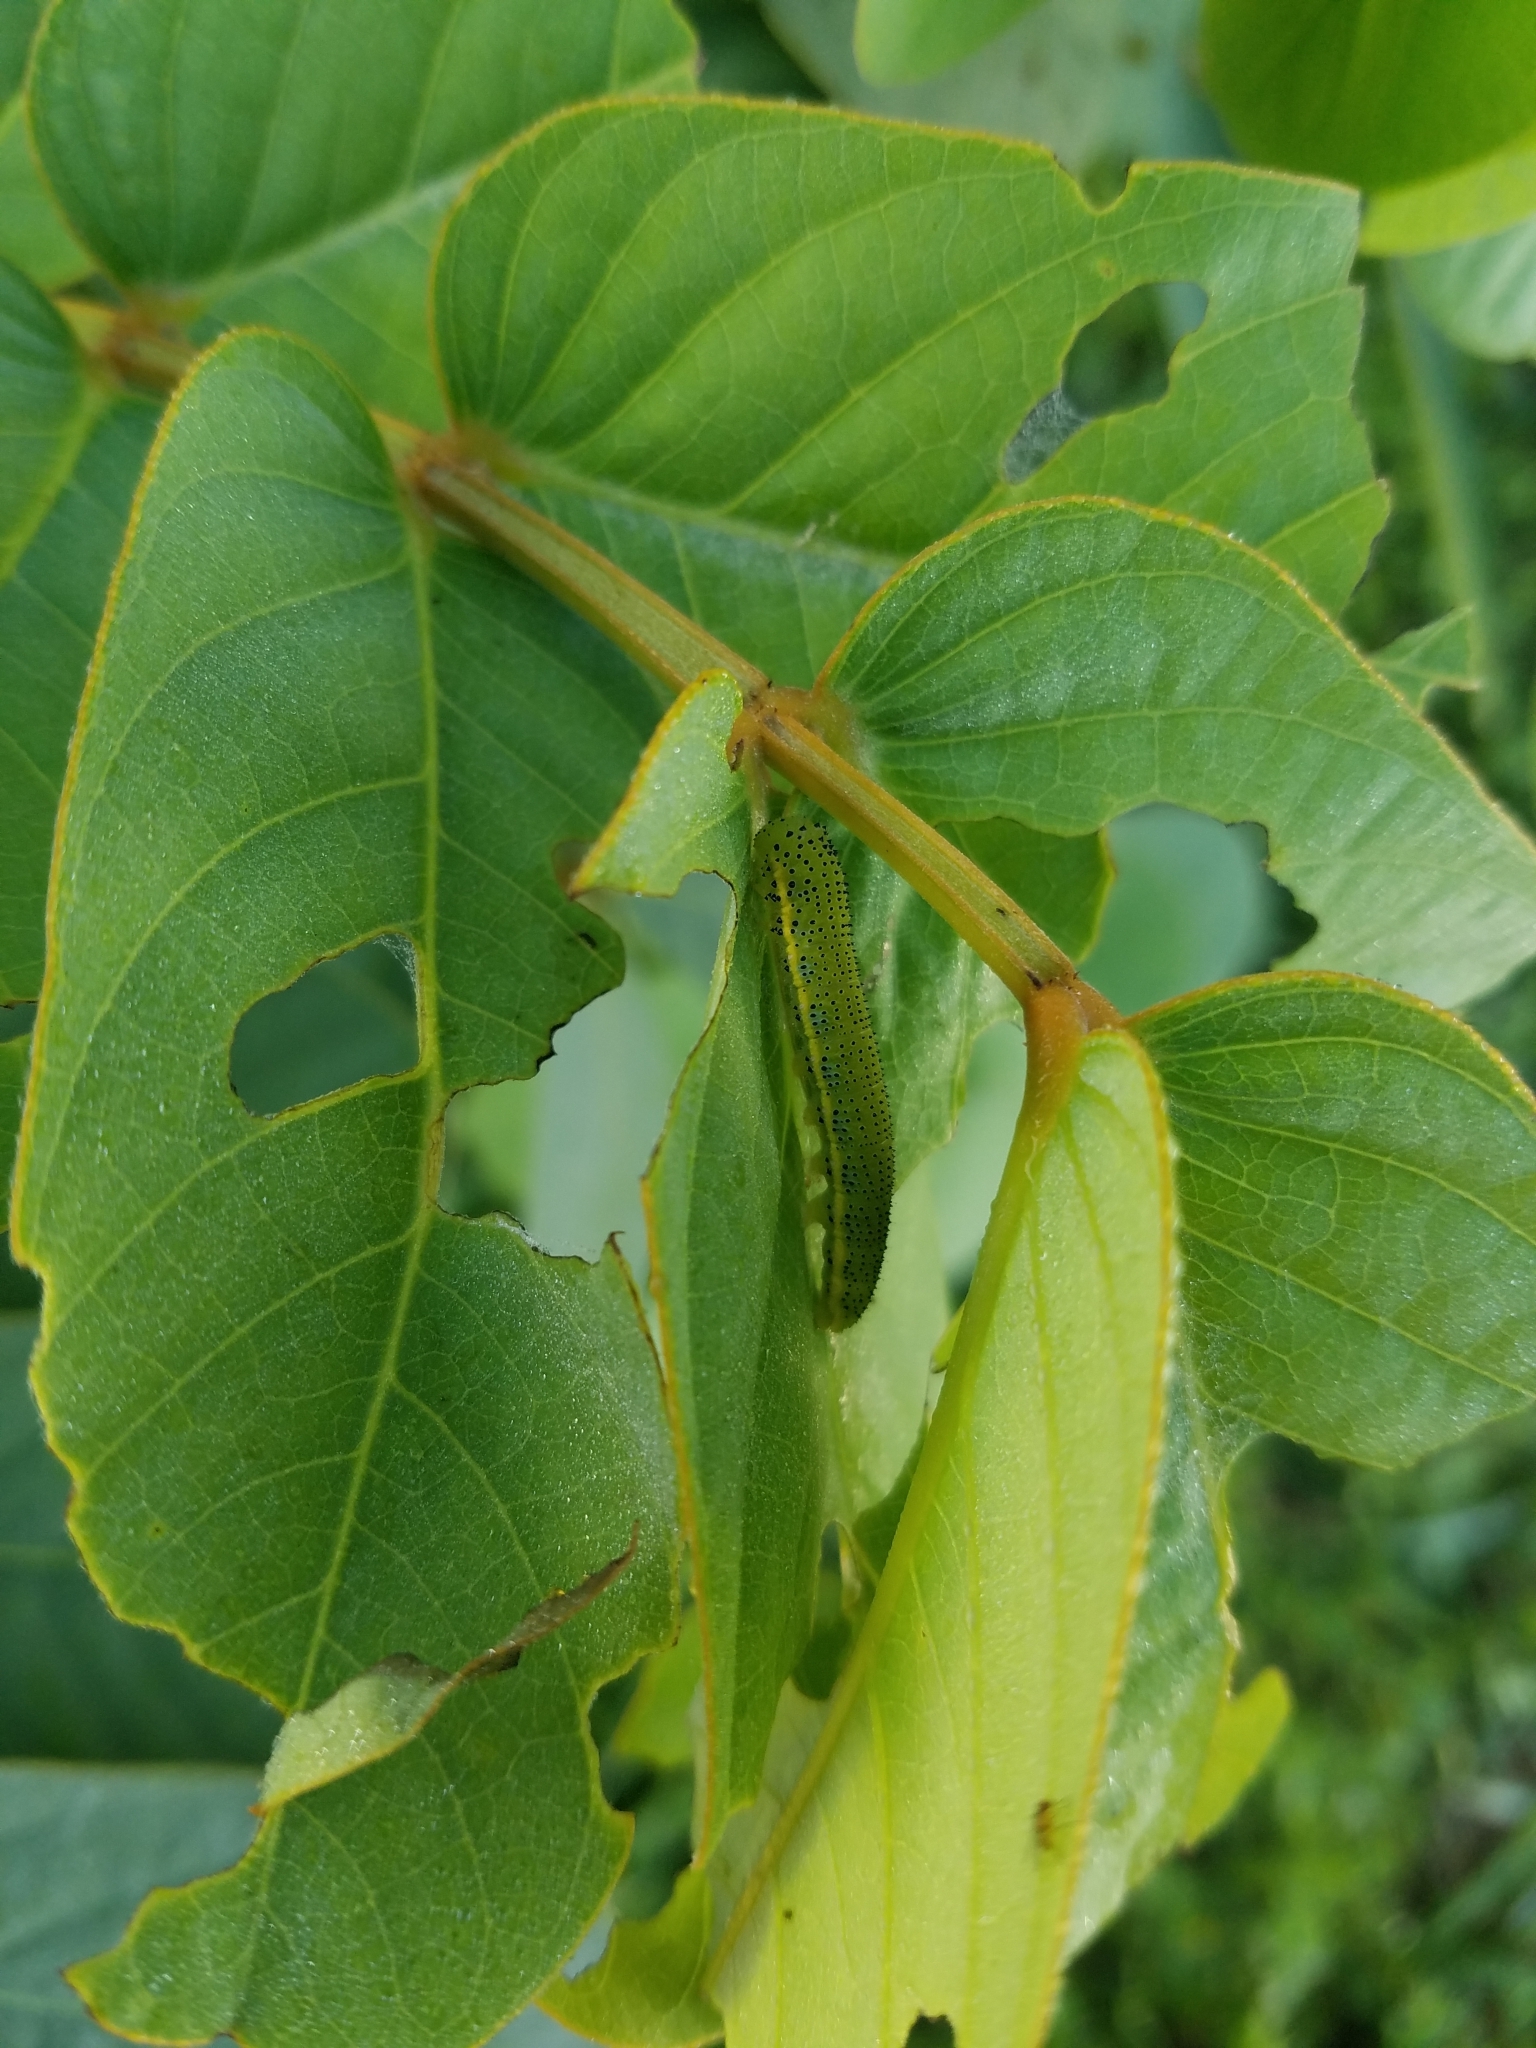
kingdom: Animalia
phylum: Arthropoda
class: Insecta
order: Lepidoptera
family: Pieridae
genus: Phoebis
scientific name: Phoebis sennae
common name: Cloudless sulphur
